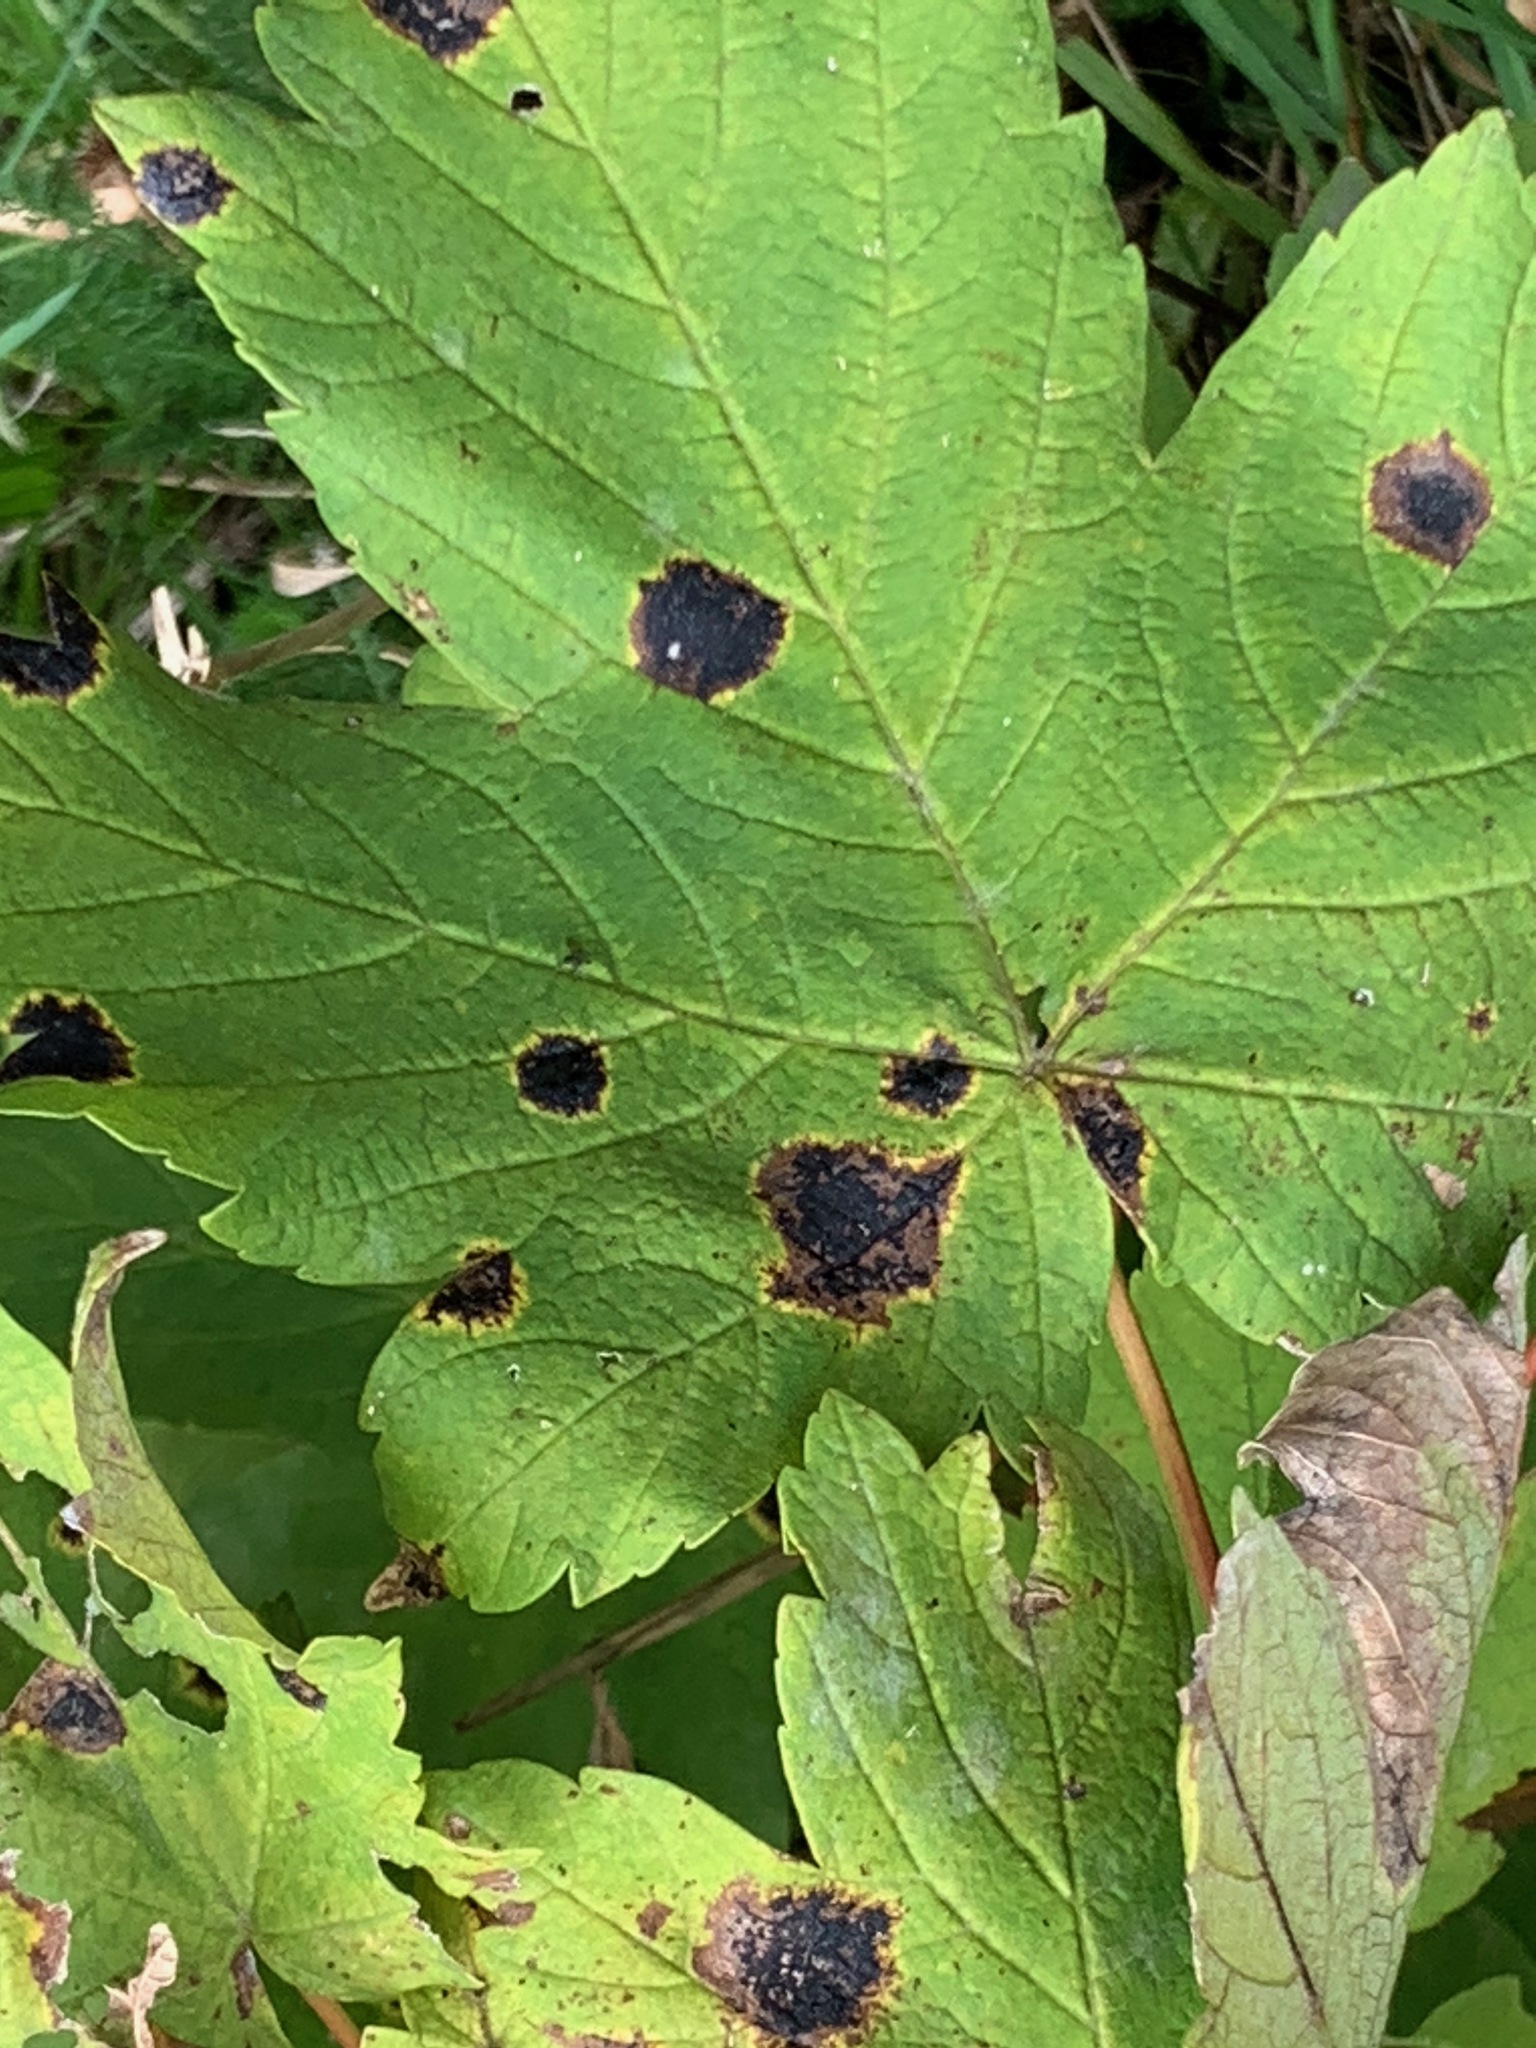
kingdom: Fungi
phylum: Ascomycota
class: Leotiomycetes
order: Rhytismatales
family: Rhytismataceae
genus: Rhytisma
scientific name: Rhytisma acerinum
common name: European tar spot
